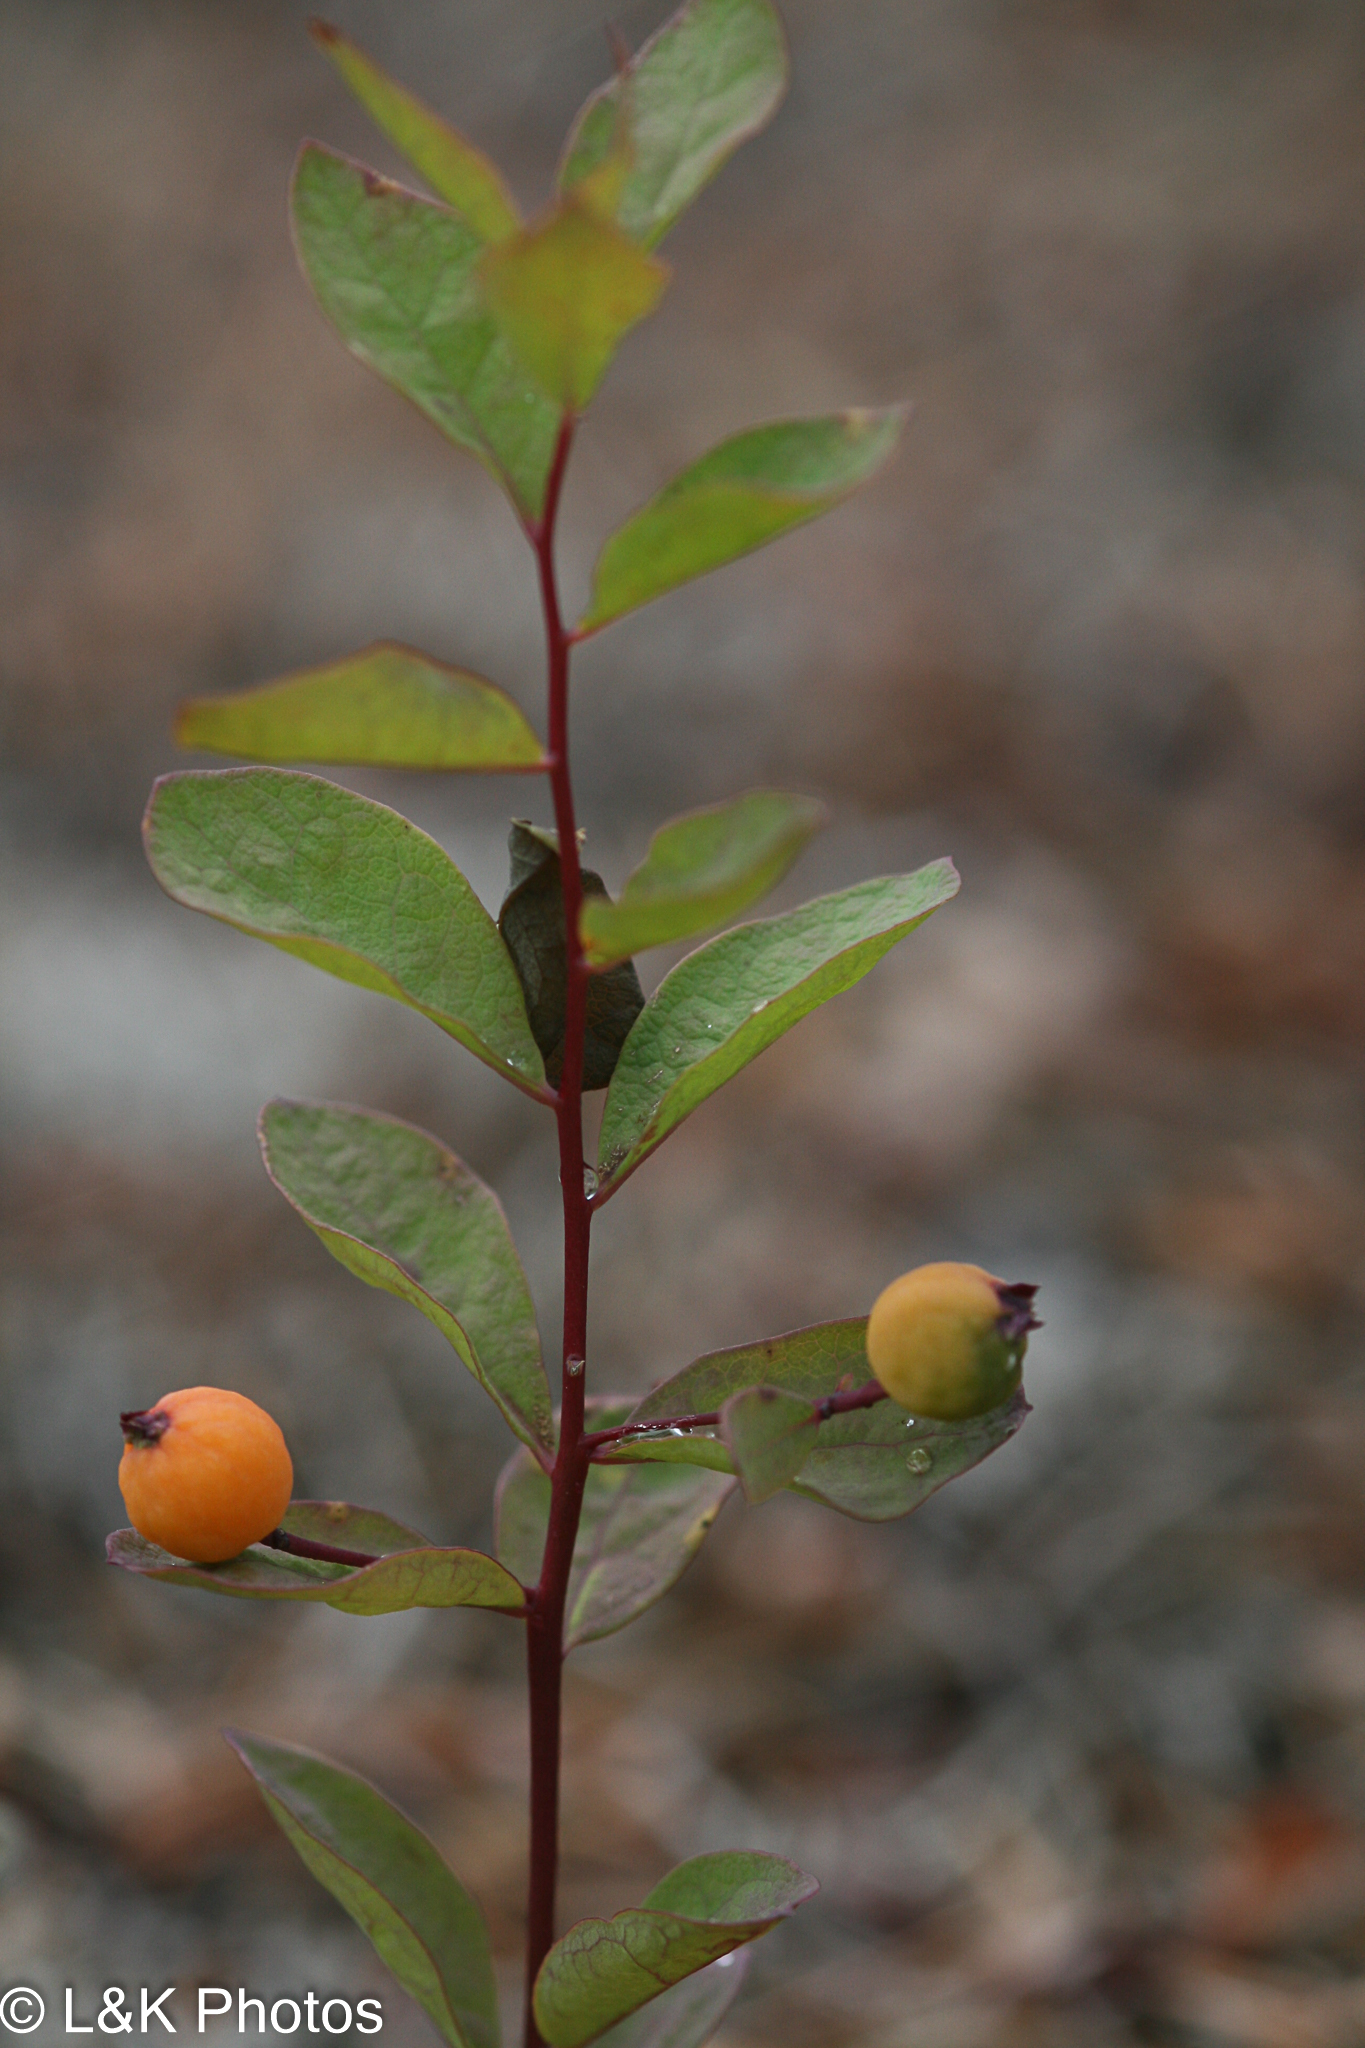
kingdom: Plantae
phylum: Tracheophyta
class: Magnoliopsida
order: Santalales
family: Comandraceae
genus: Geocaulon
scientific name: Geocaulon lividum
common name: Earthberry
